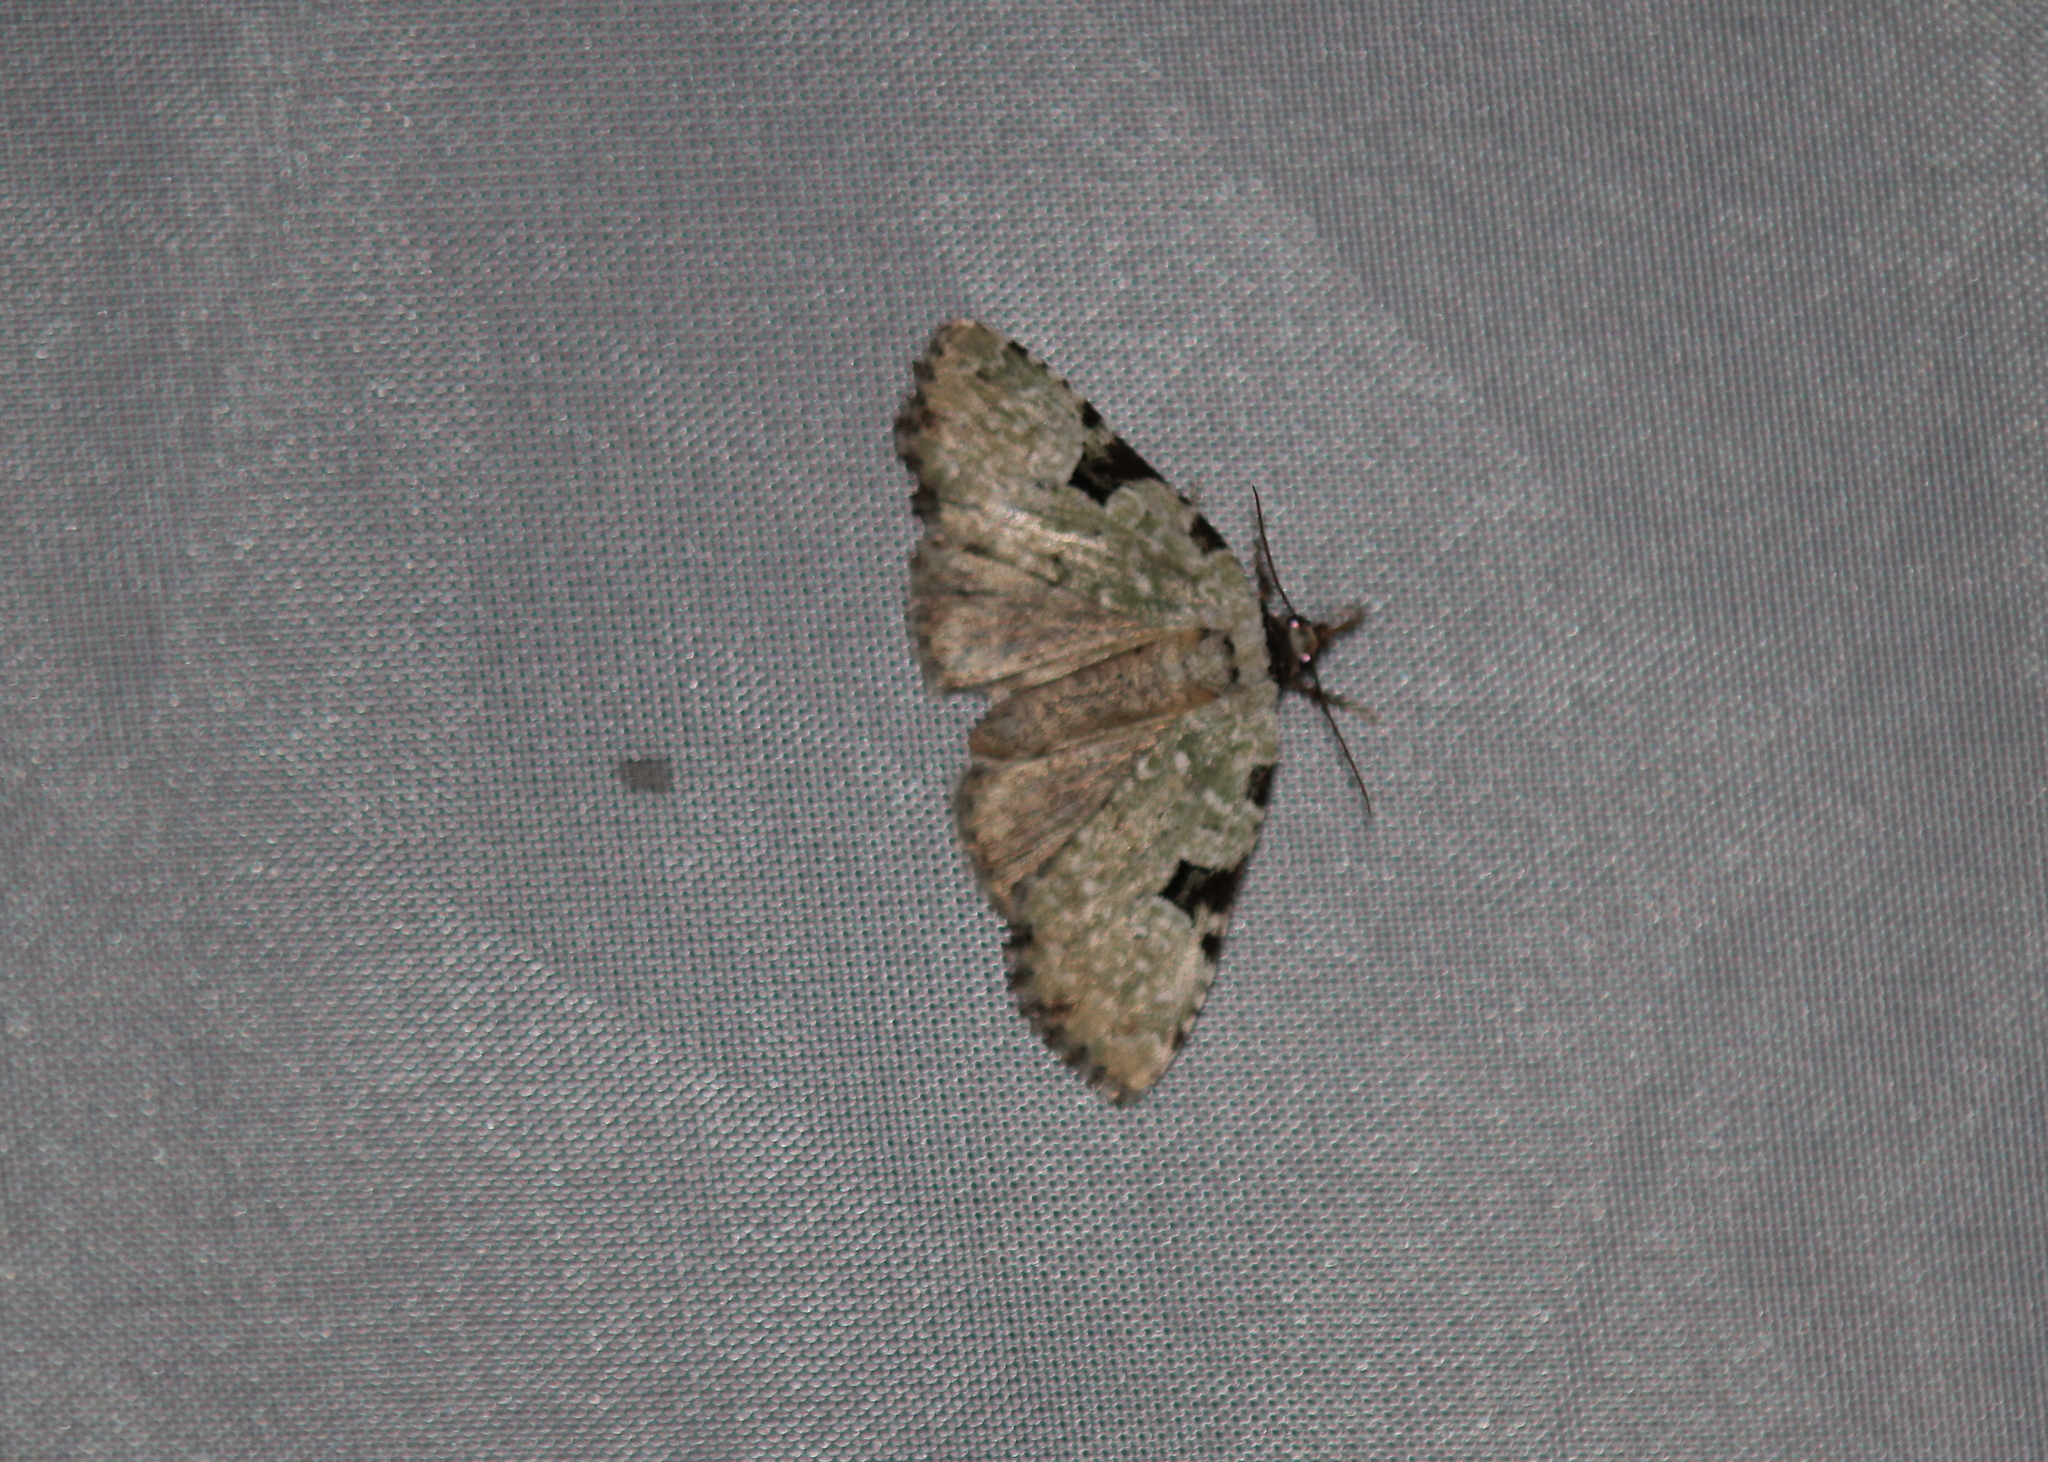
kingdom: Animalia
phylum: Arthropoda
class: Insecta
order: Lepidoptera
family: Noctuidae
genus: Leuconycta
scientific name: Leuconycta diphteroides
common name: Green leuconycta moth
